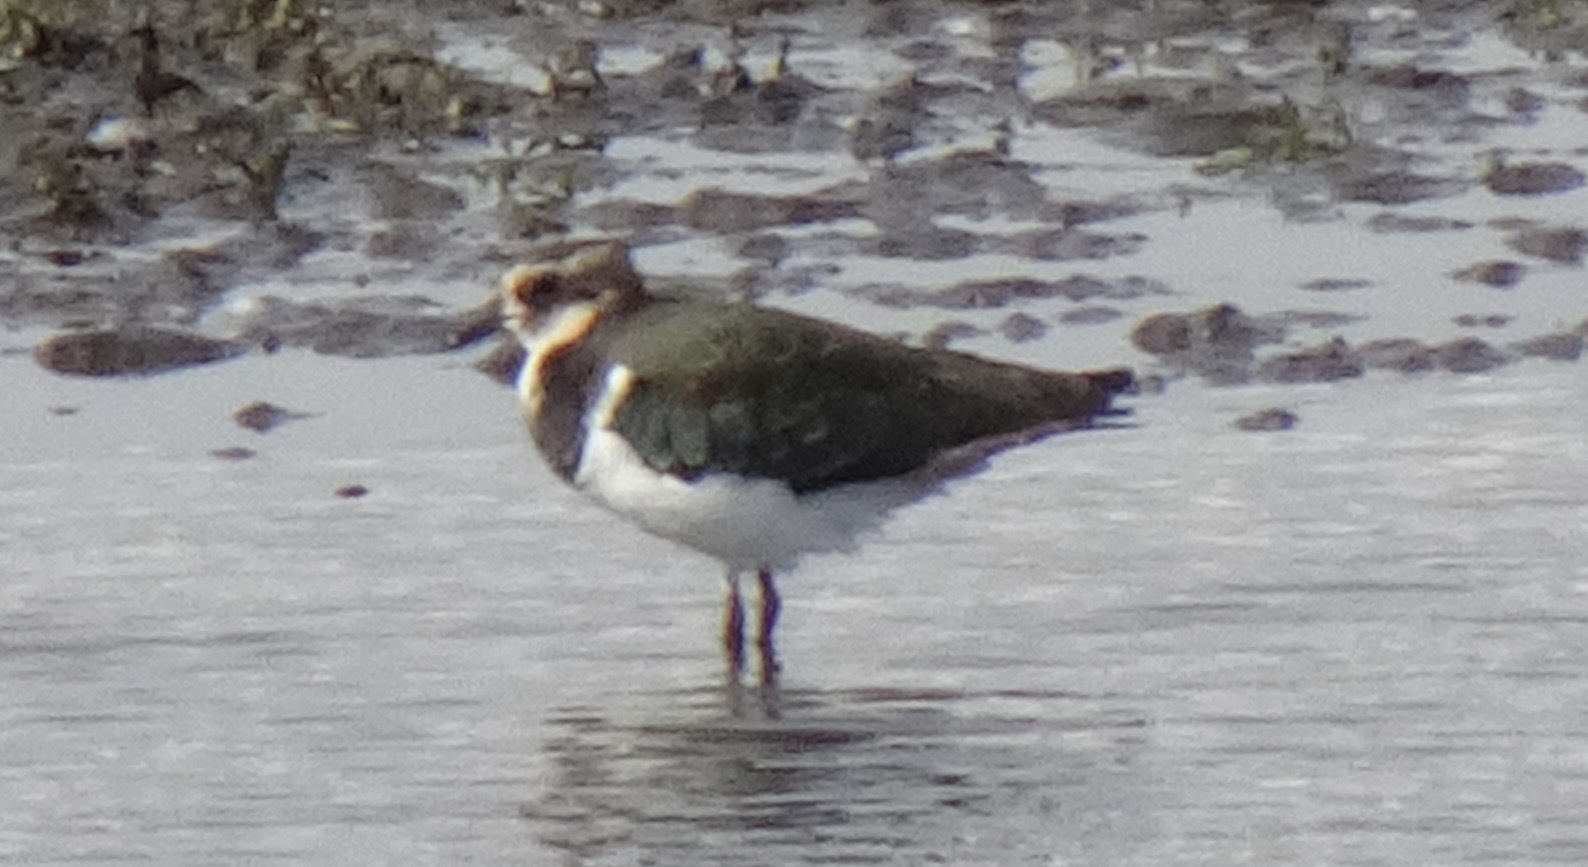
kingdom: Animalia
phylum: Chordata
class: Aves
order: Charadriiformes
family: Charadriidae
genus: Vanellus
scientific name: Vanellus vanellus
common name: Northern lapwing
